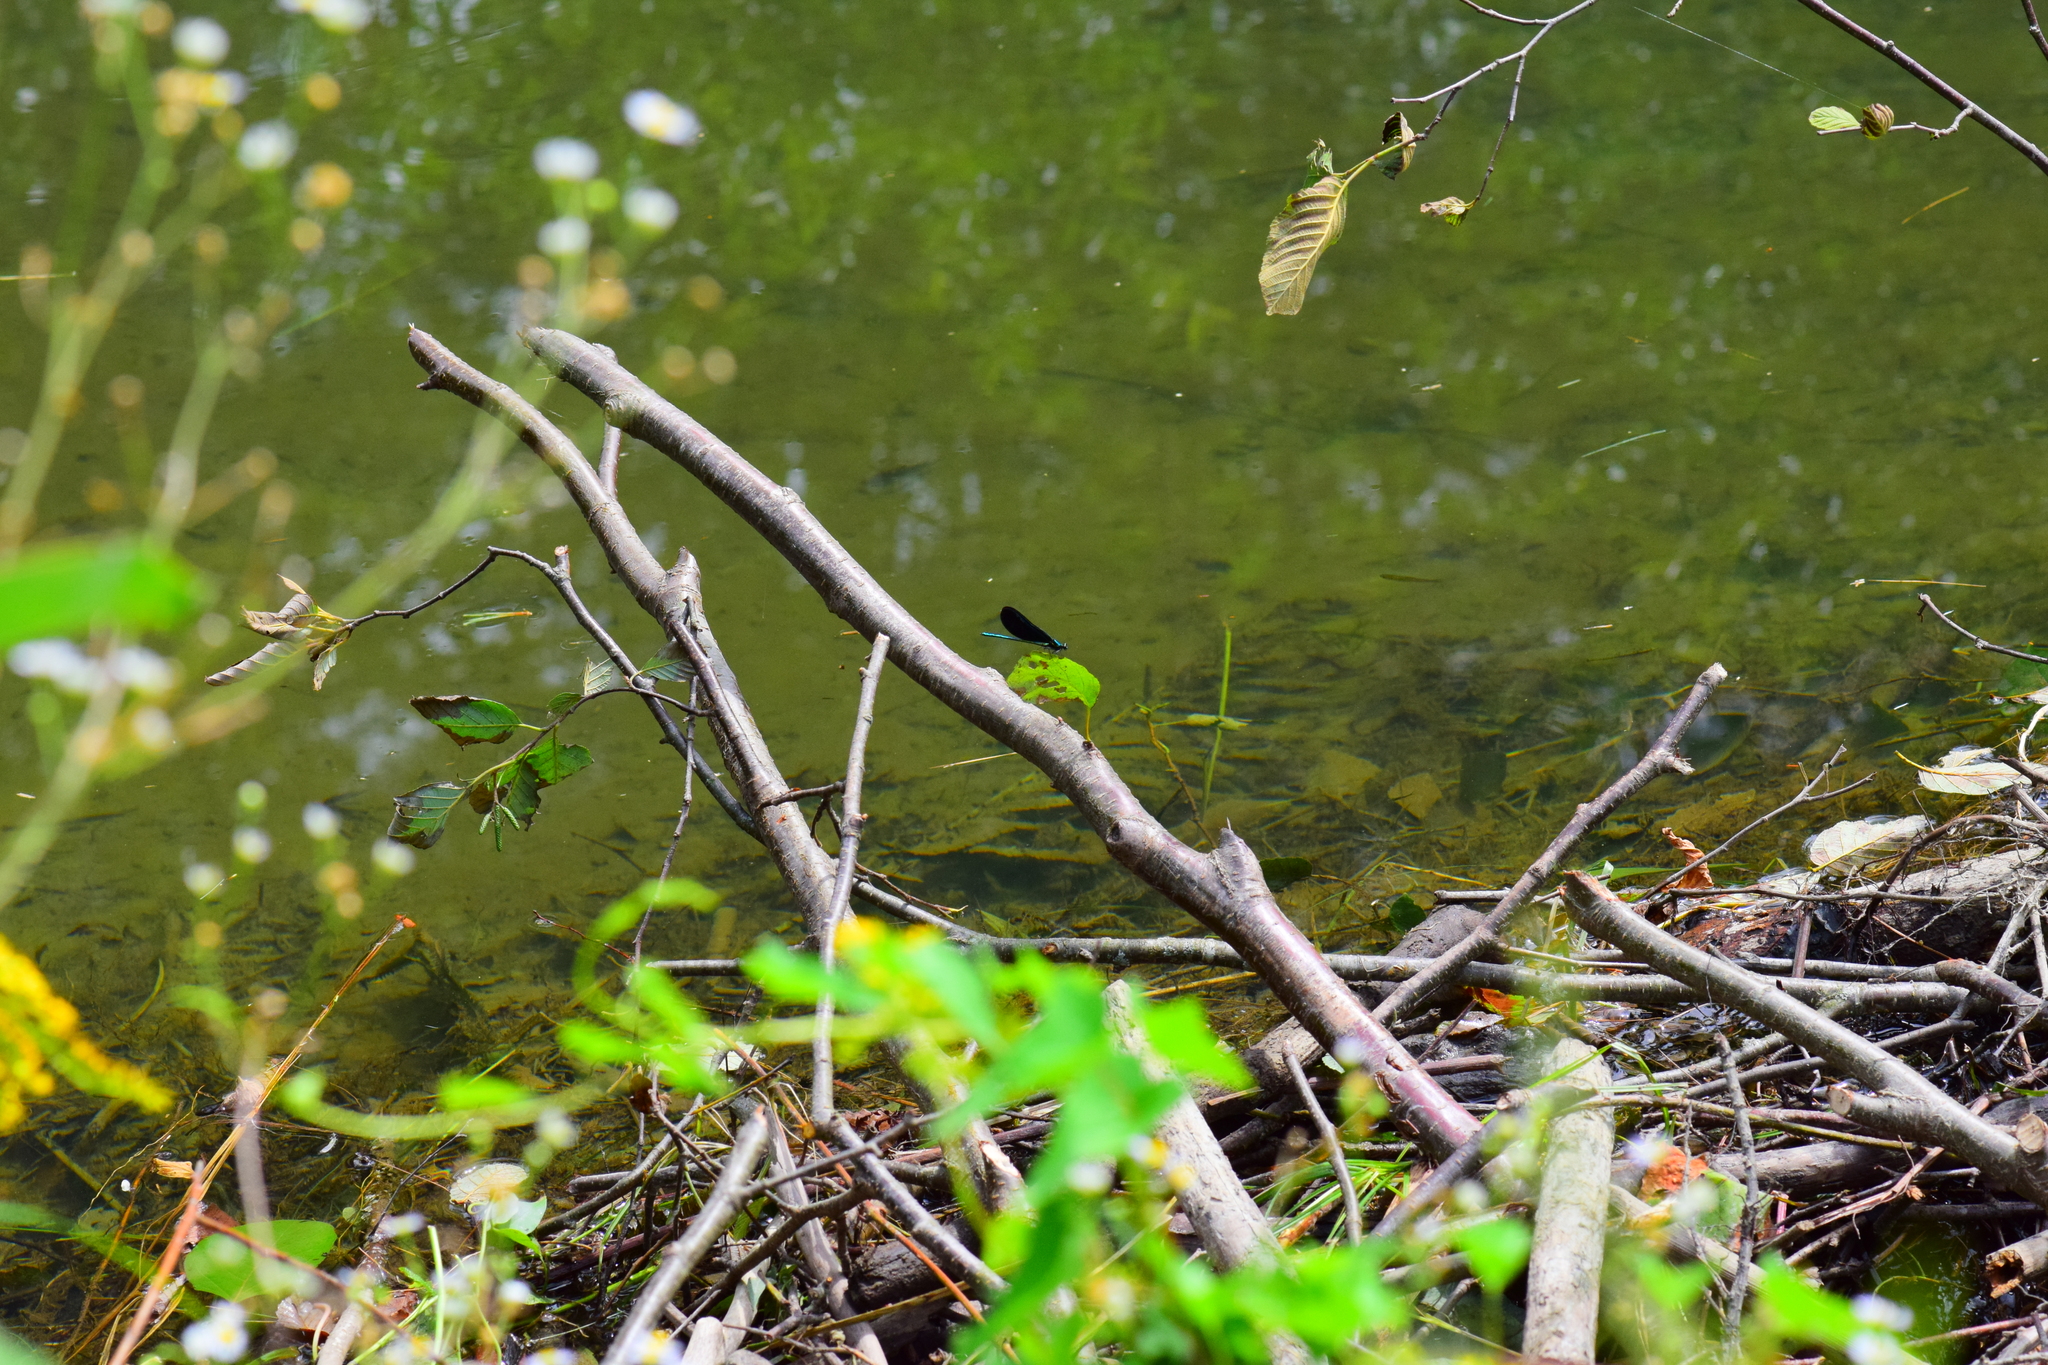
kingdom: Animalia
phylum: Arthropoda
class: Insecta
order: Odonata
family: Calopterygidae
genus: Calopteryx
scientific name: Calopteryx maculata
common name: Ebony jewelwing
